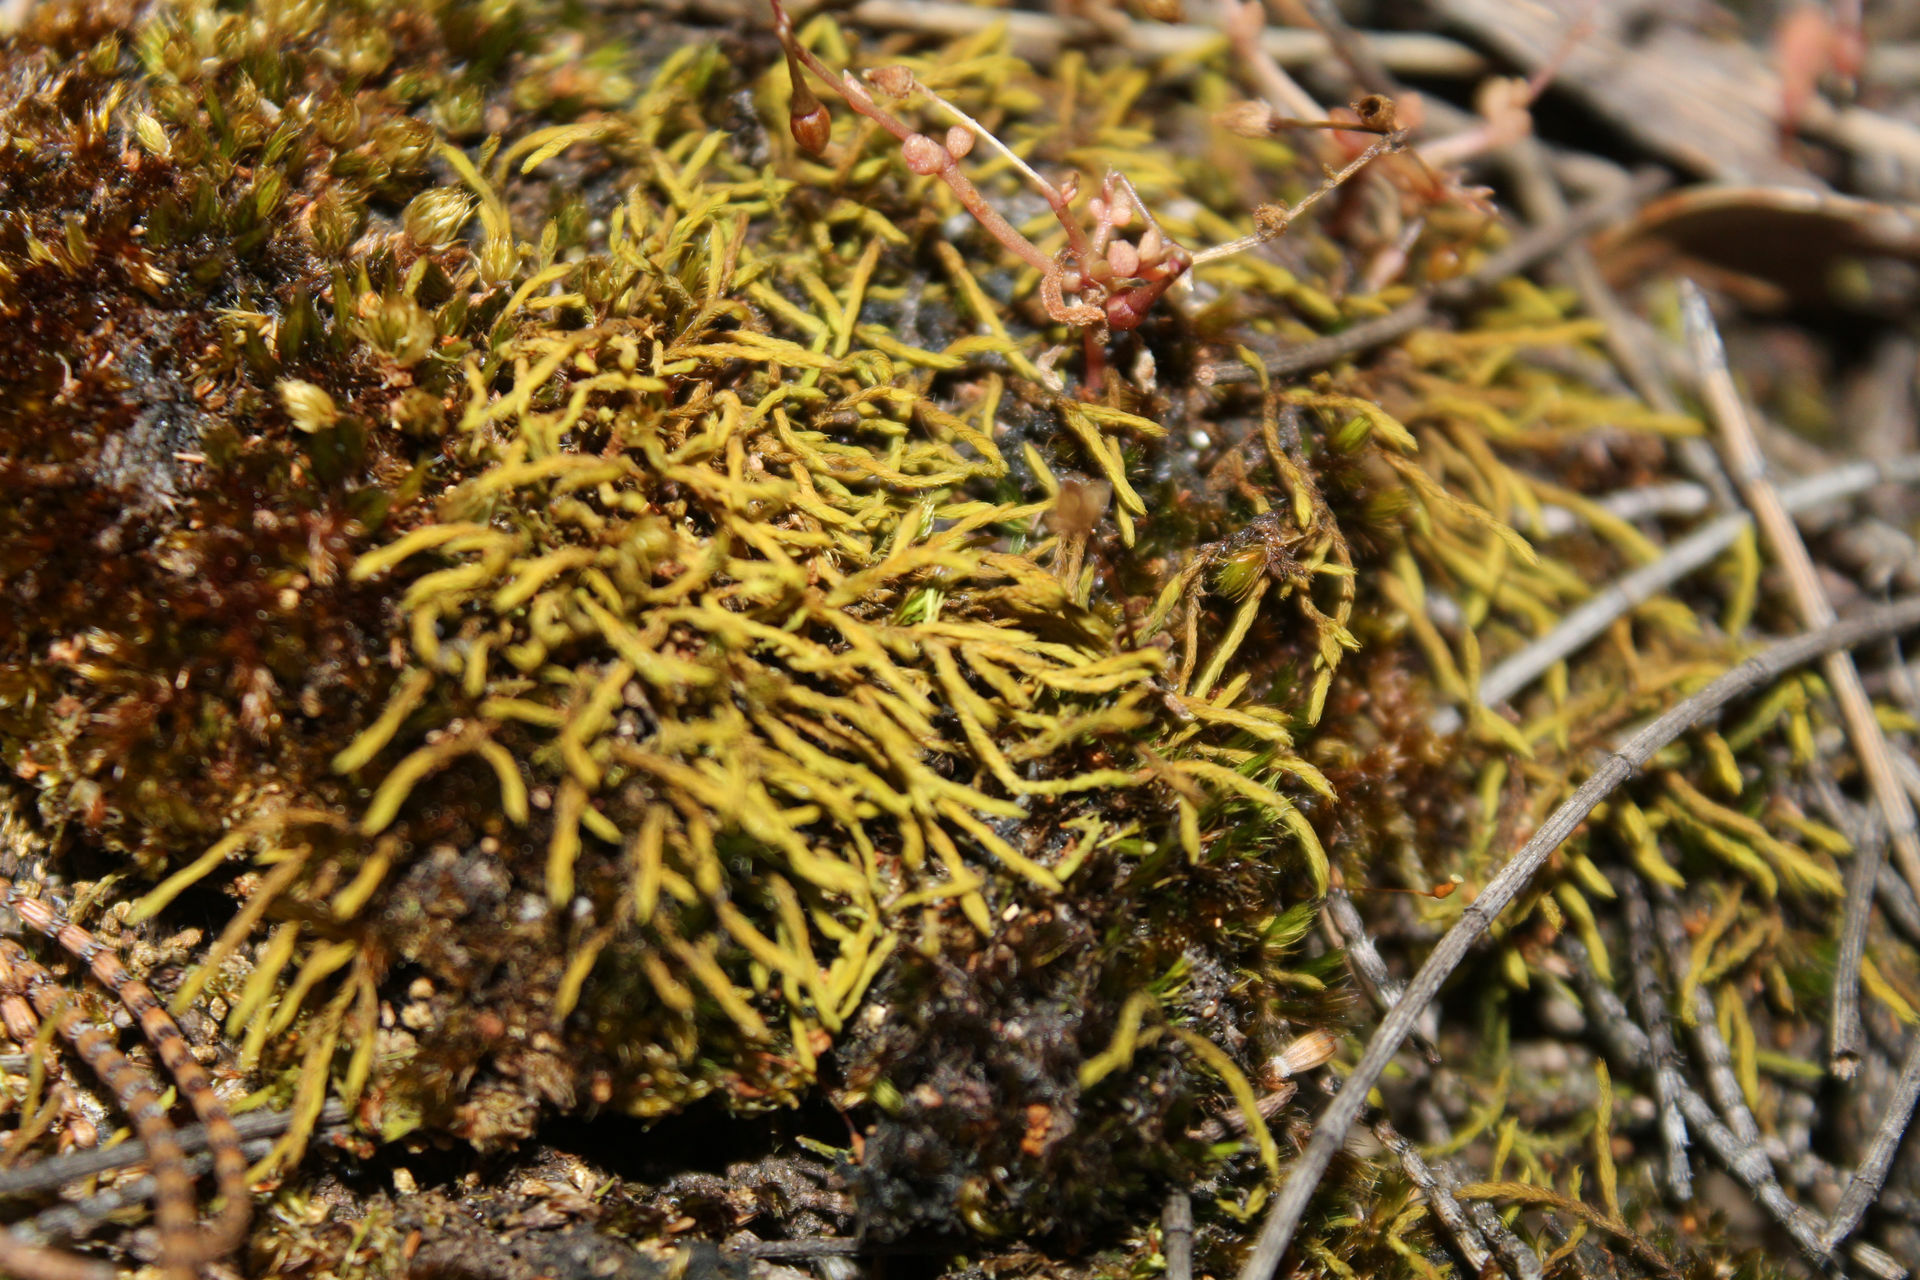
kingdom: Plantae
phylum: Bryophyta
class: Bryopsida
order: Pottiales
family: Pottiaceae
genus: Triquetrella
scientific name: Triquetrella papillata
